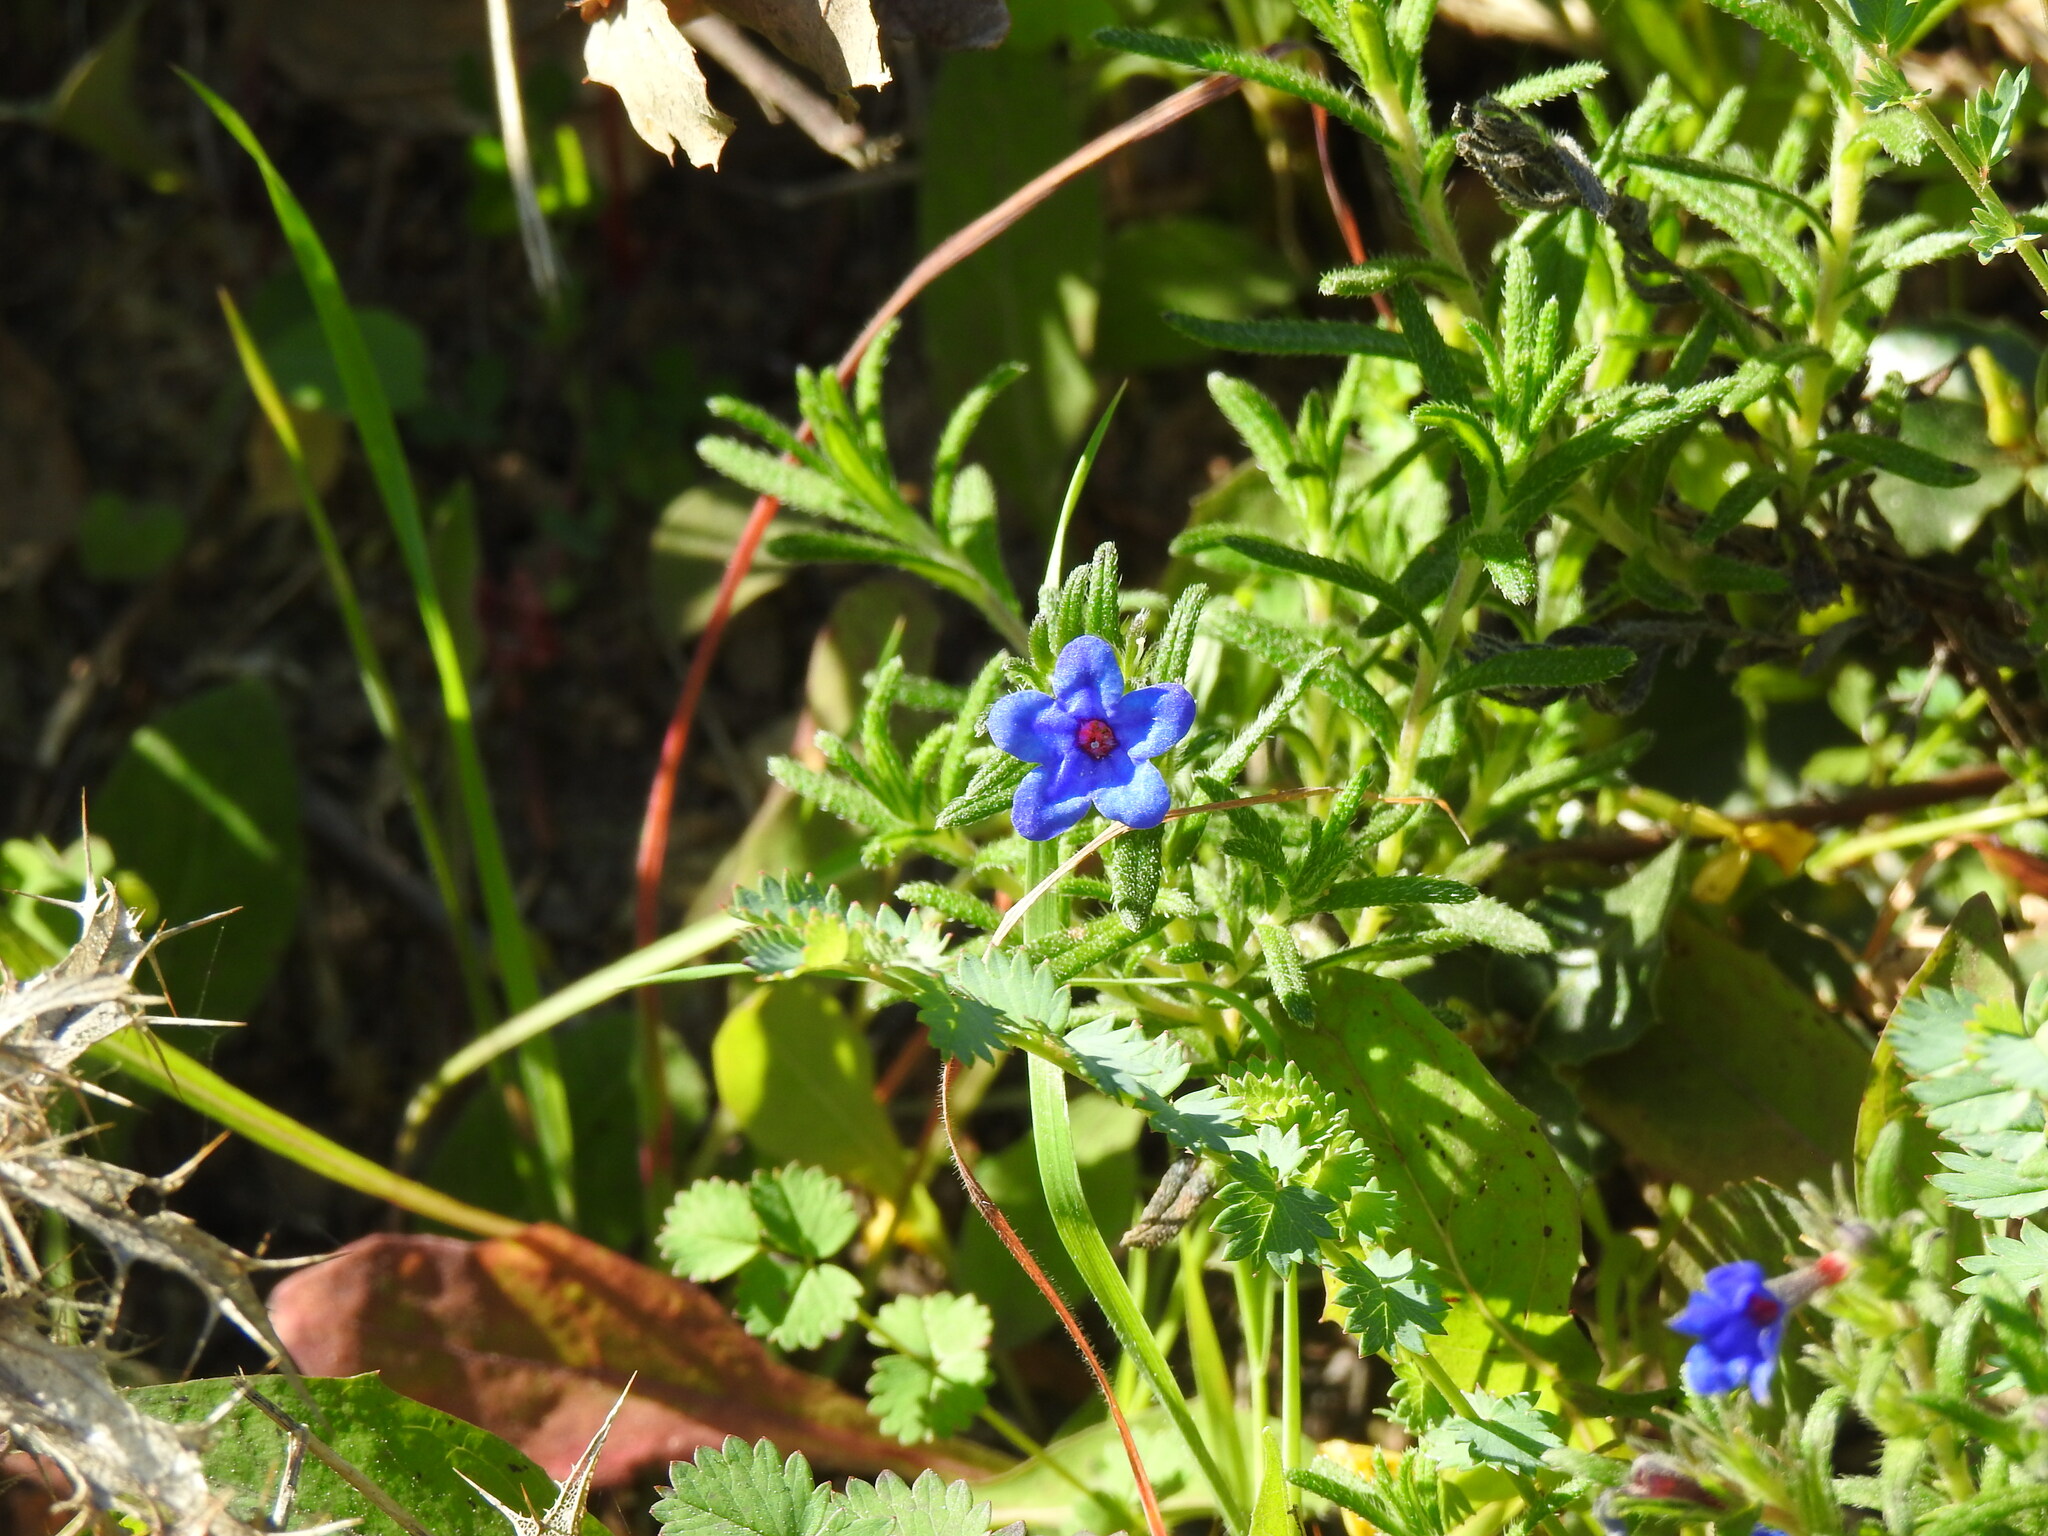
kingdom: Plantae
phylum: Tracheophyta
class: Magnoliopsida
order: Boraginales
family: Boraginaceae
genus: Glandora
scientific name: Glandora prostrata
